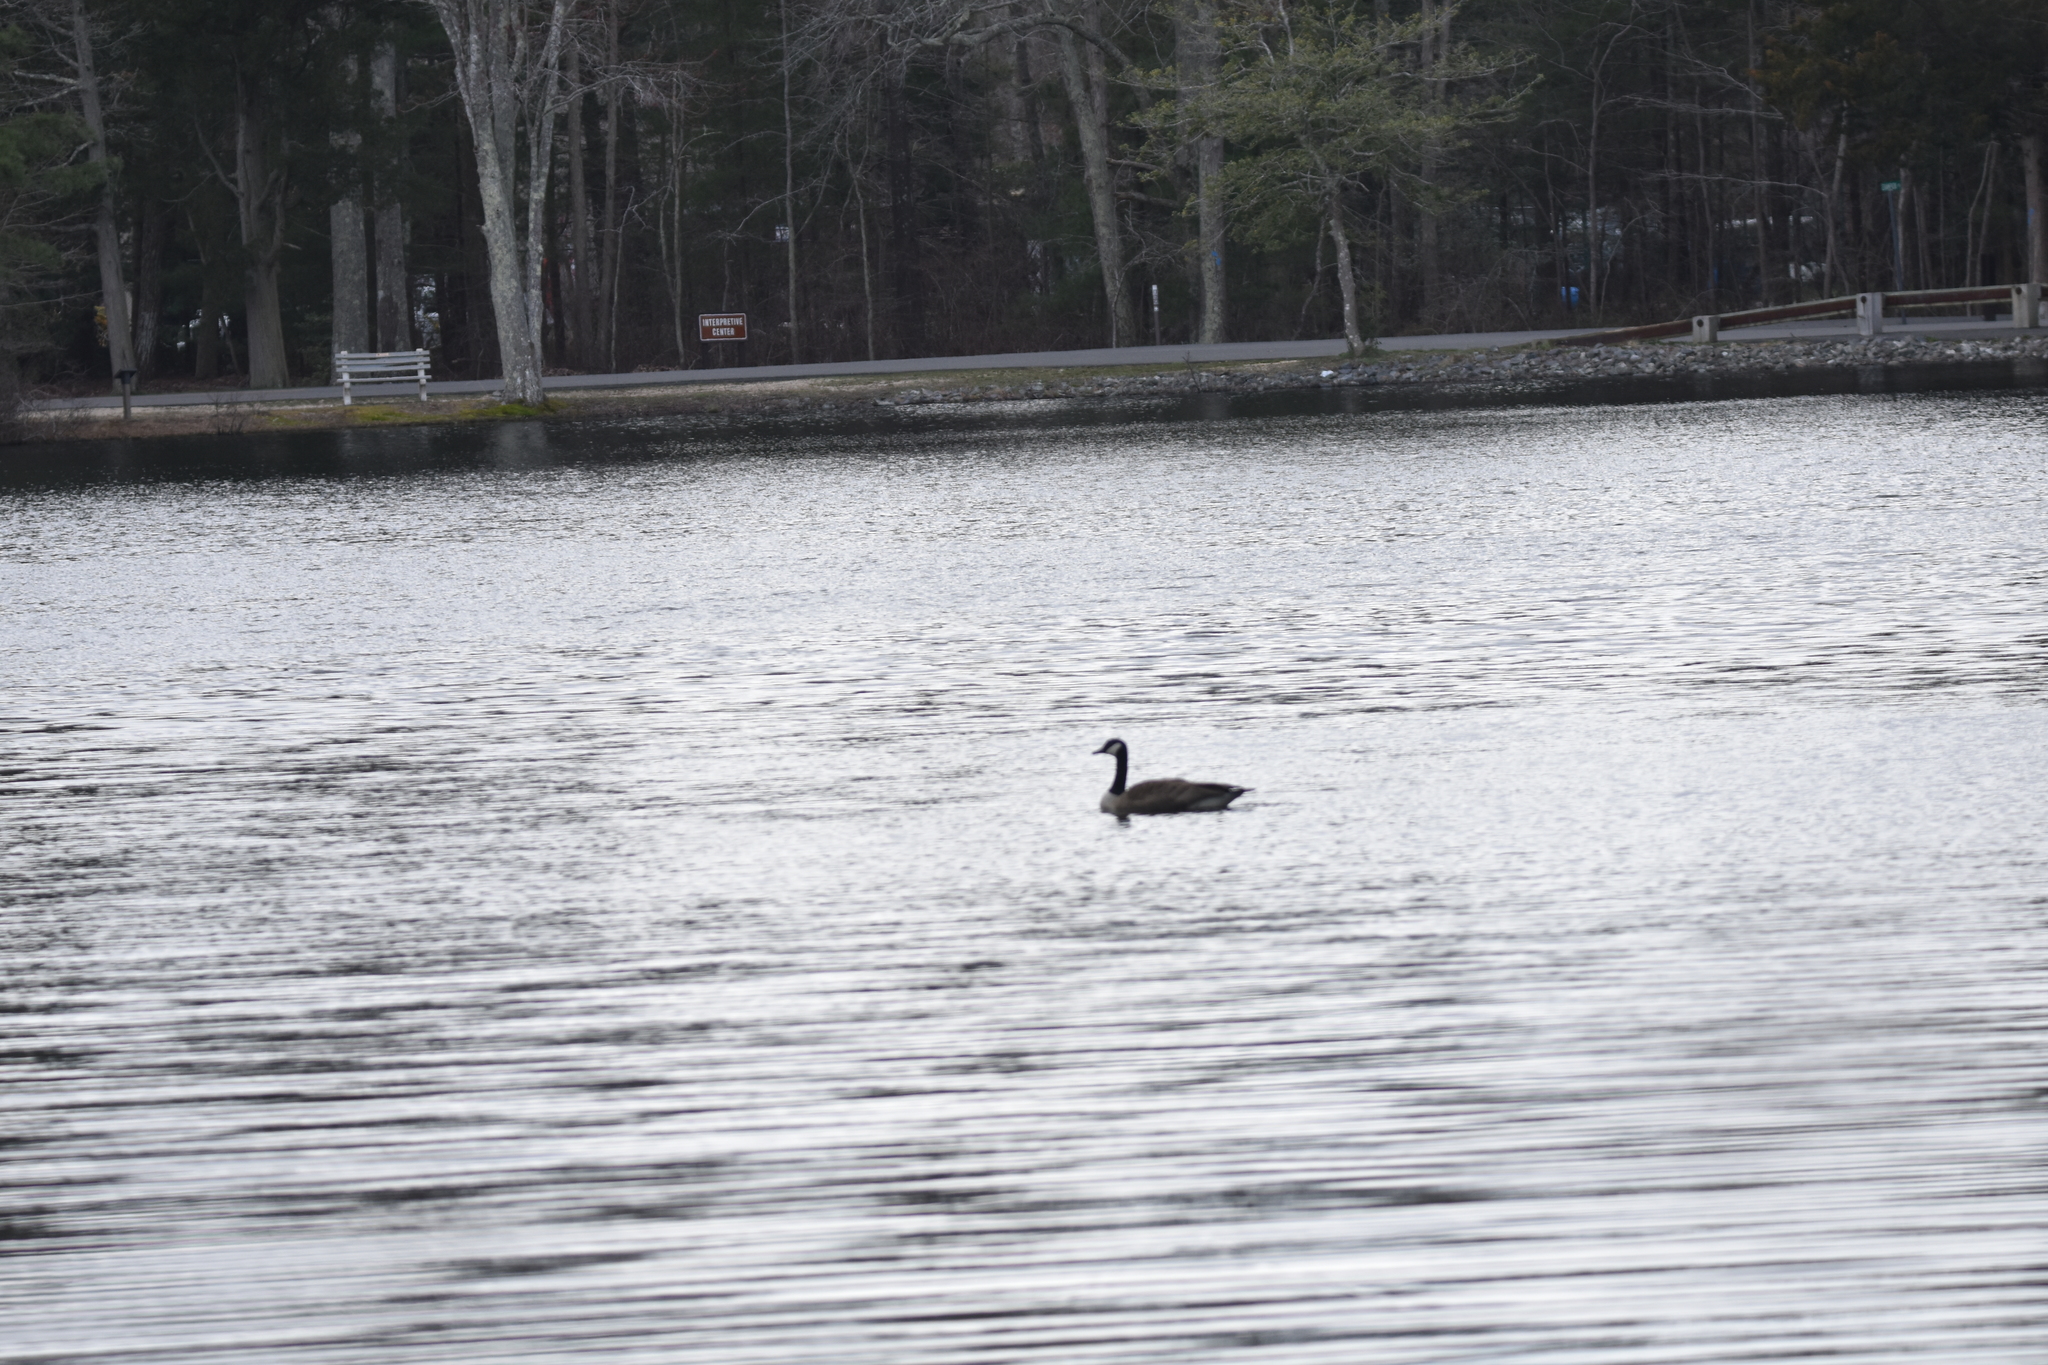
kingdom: Animalia
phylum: Chordata
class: Aves
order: Anseriformes
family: Anatidae
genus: Branta
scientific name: Branta canadensis
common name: Canada goose
